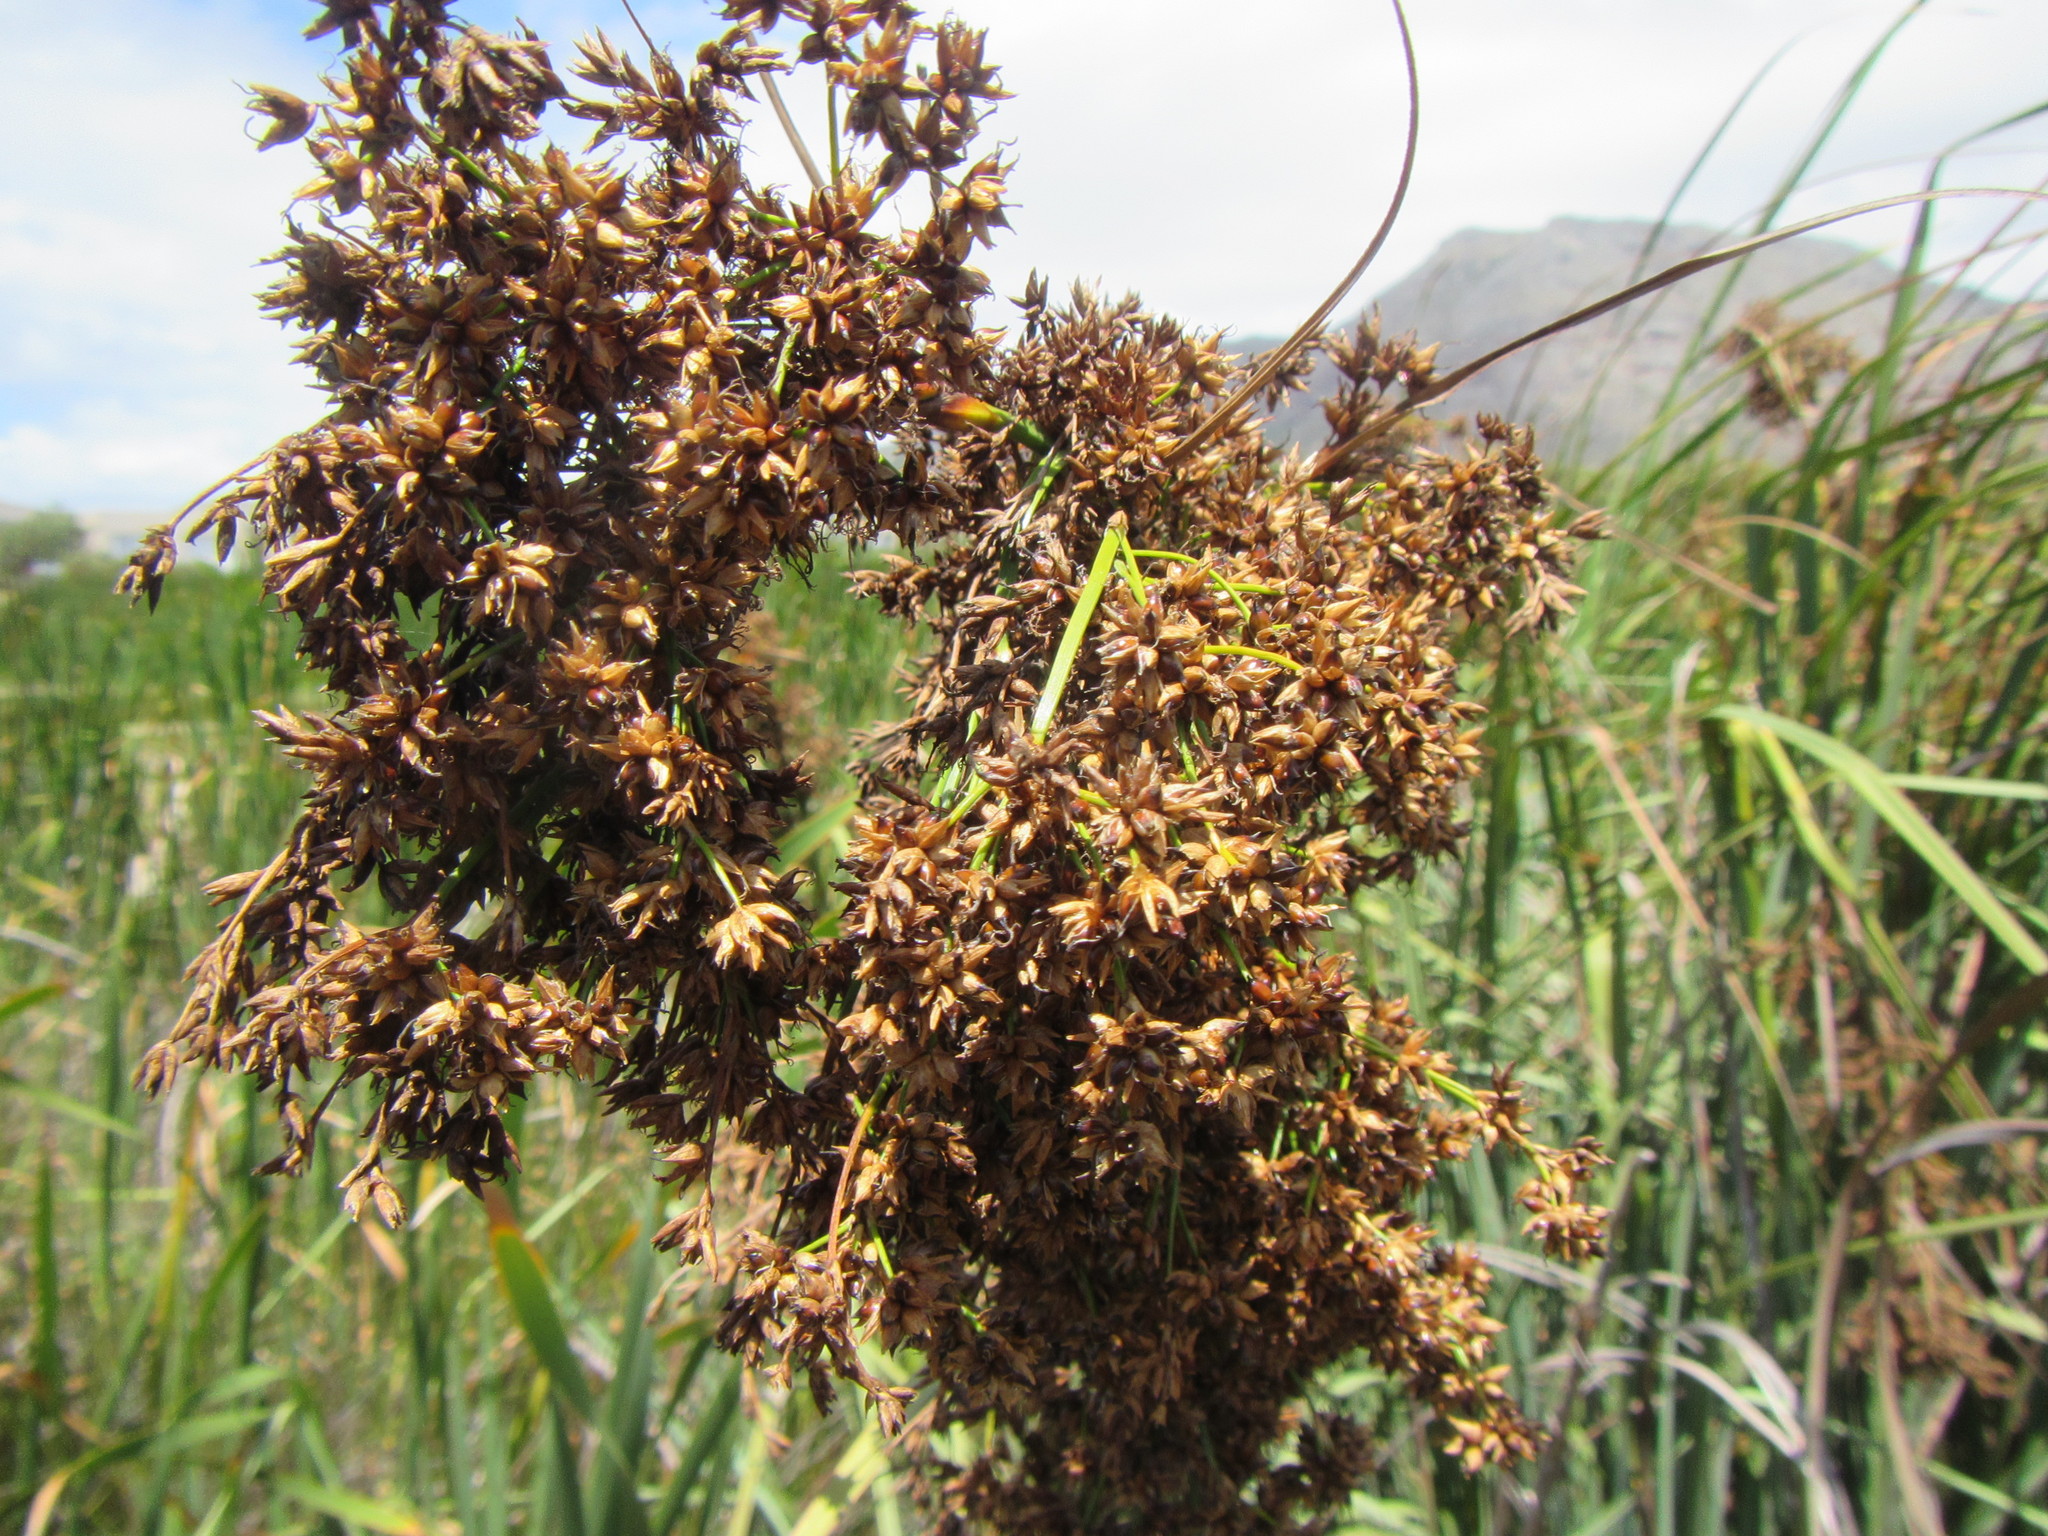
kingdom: Plantae
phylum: Tracheophyta
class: Liliopsida
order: Poales
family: Cyperaceae
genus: Cladium
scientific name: Cladium mariscus
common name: Great fen-sedge
